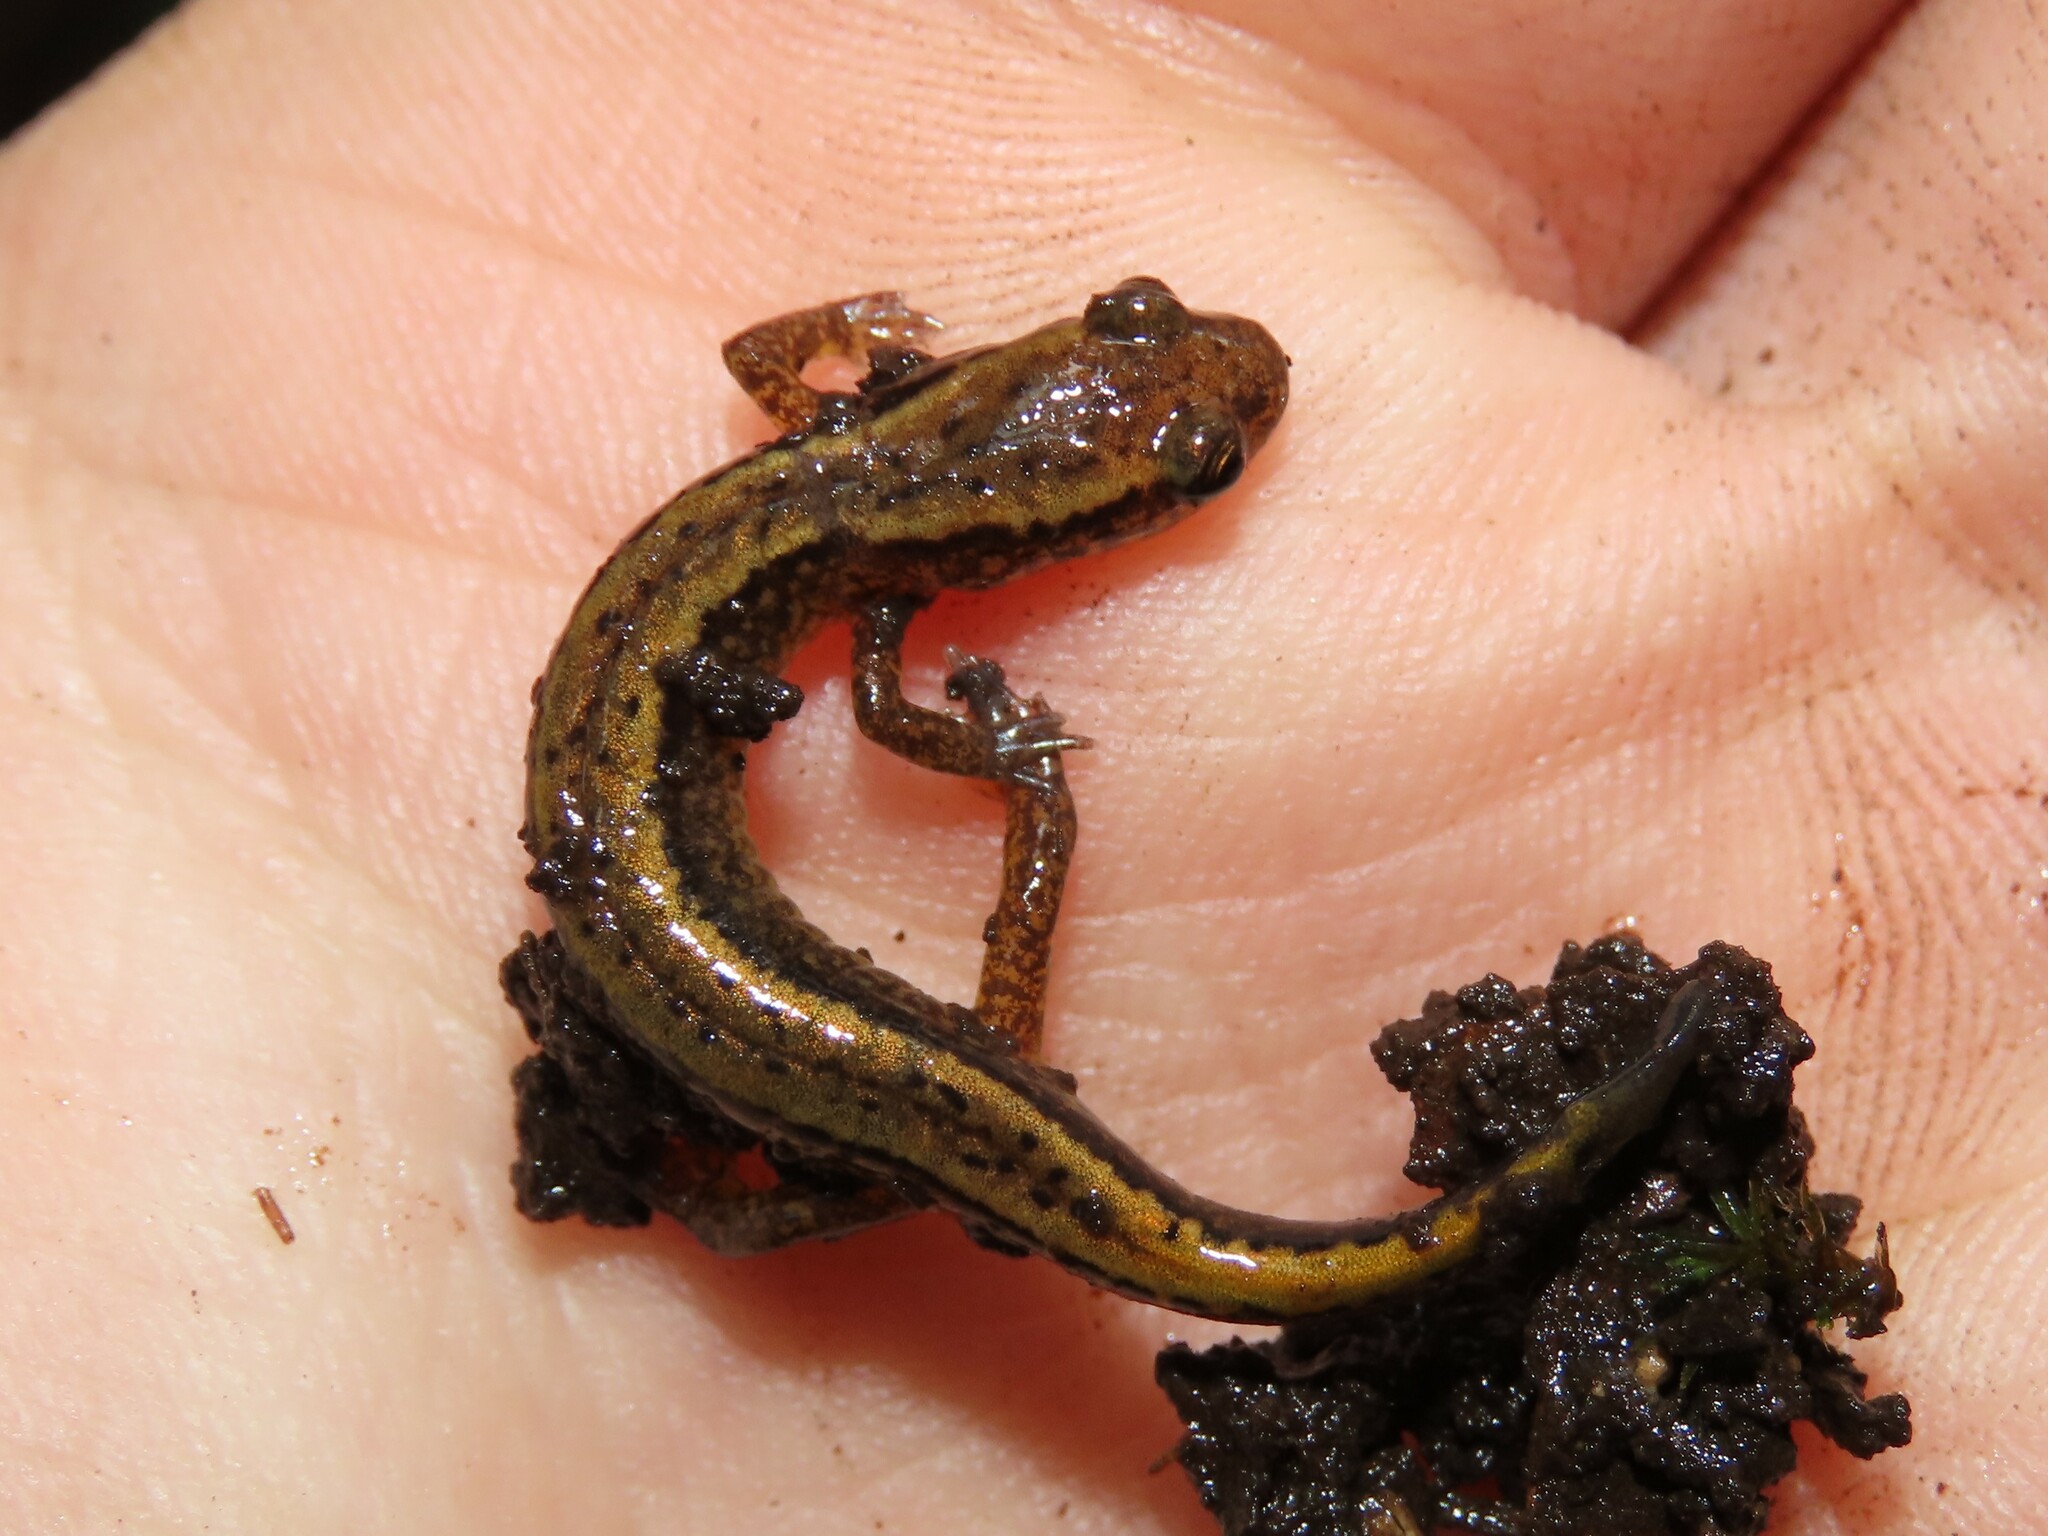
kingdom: Animalia
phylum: Chordata
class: Amphibia
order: Caudata
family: Plethodontidae
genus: Eurycea
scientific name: Eurycea bislineata
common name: Northern two-lined salamander
